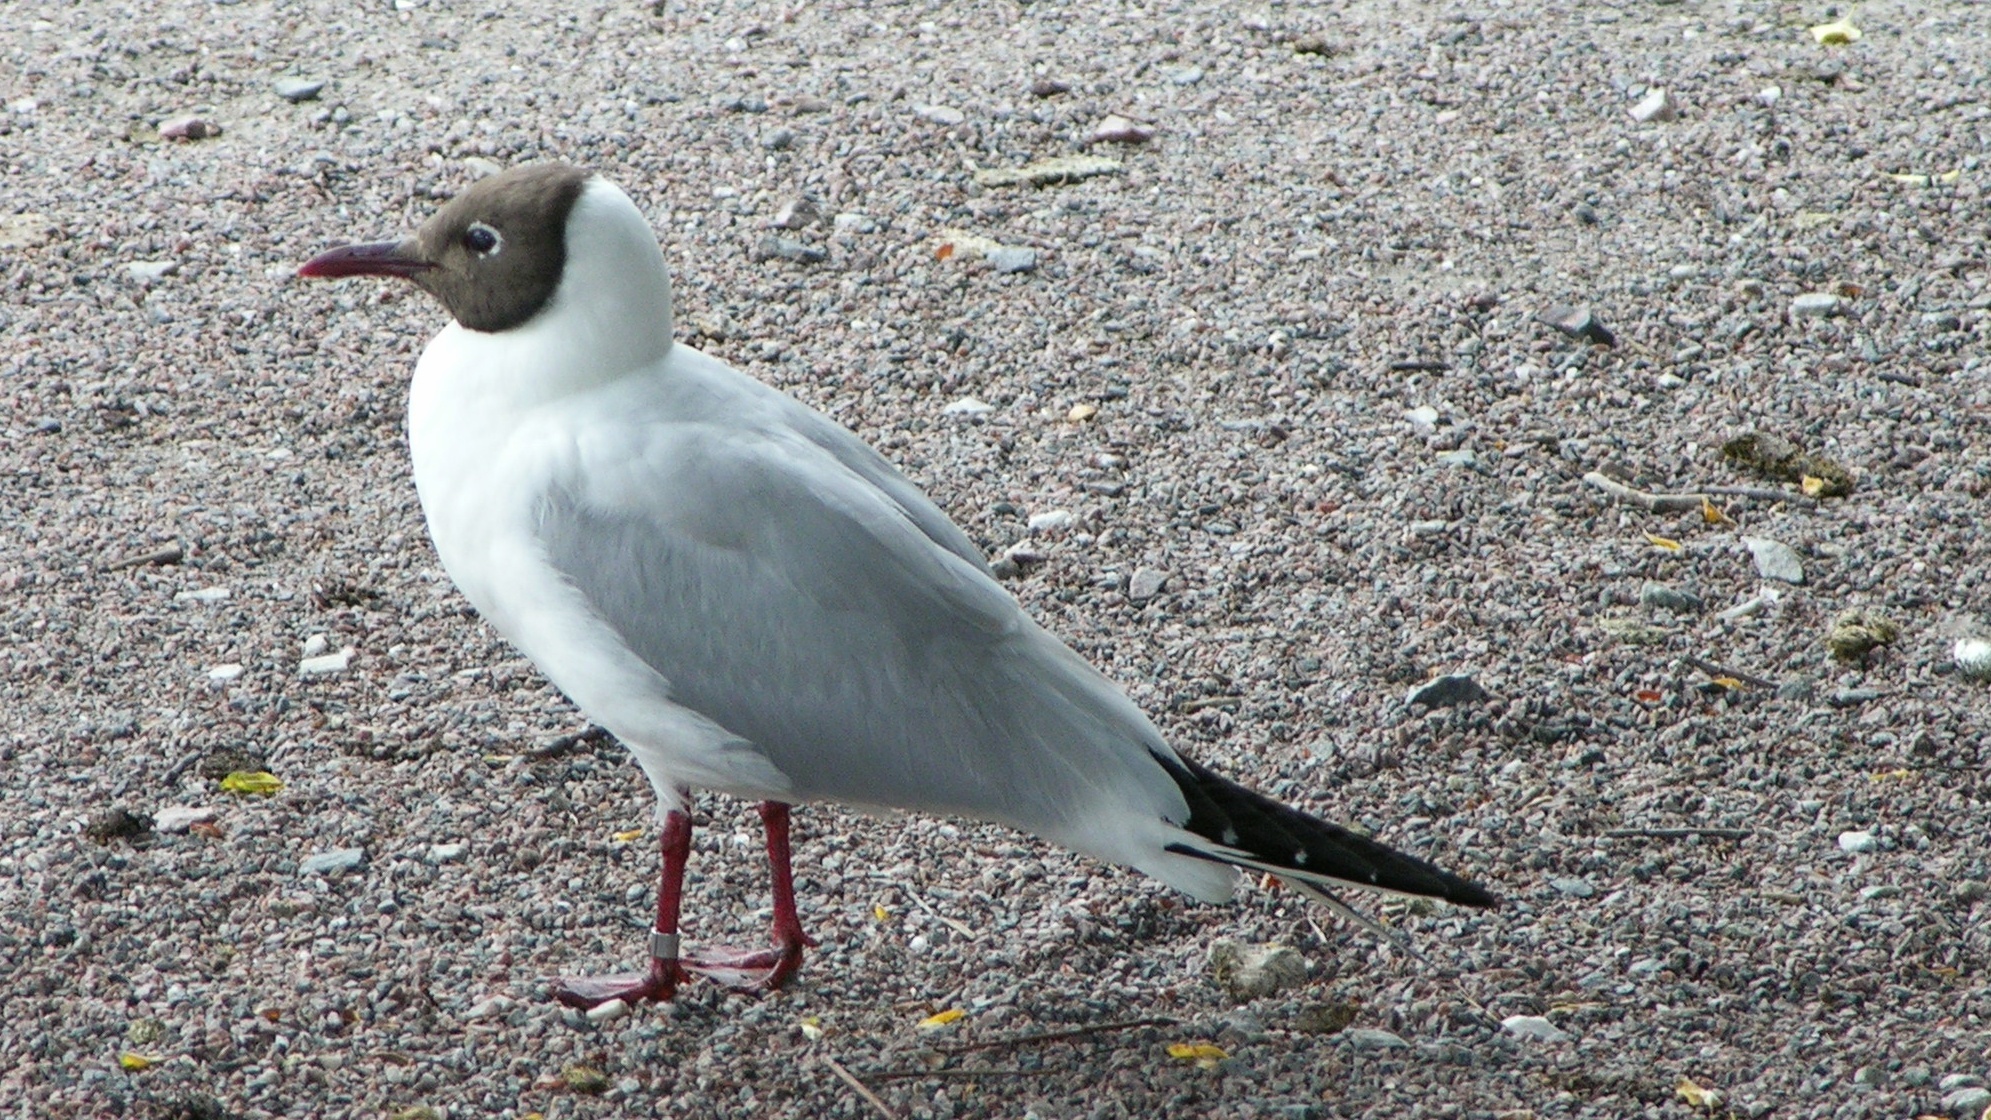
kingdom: Animalia
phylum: Chordata
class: Aves
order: Charadriiformes
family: Laridae
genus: Chroicocephalus
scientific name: Chroicocephalus ridibundus
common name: Black-headed gull
